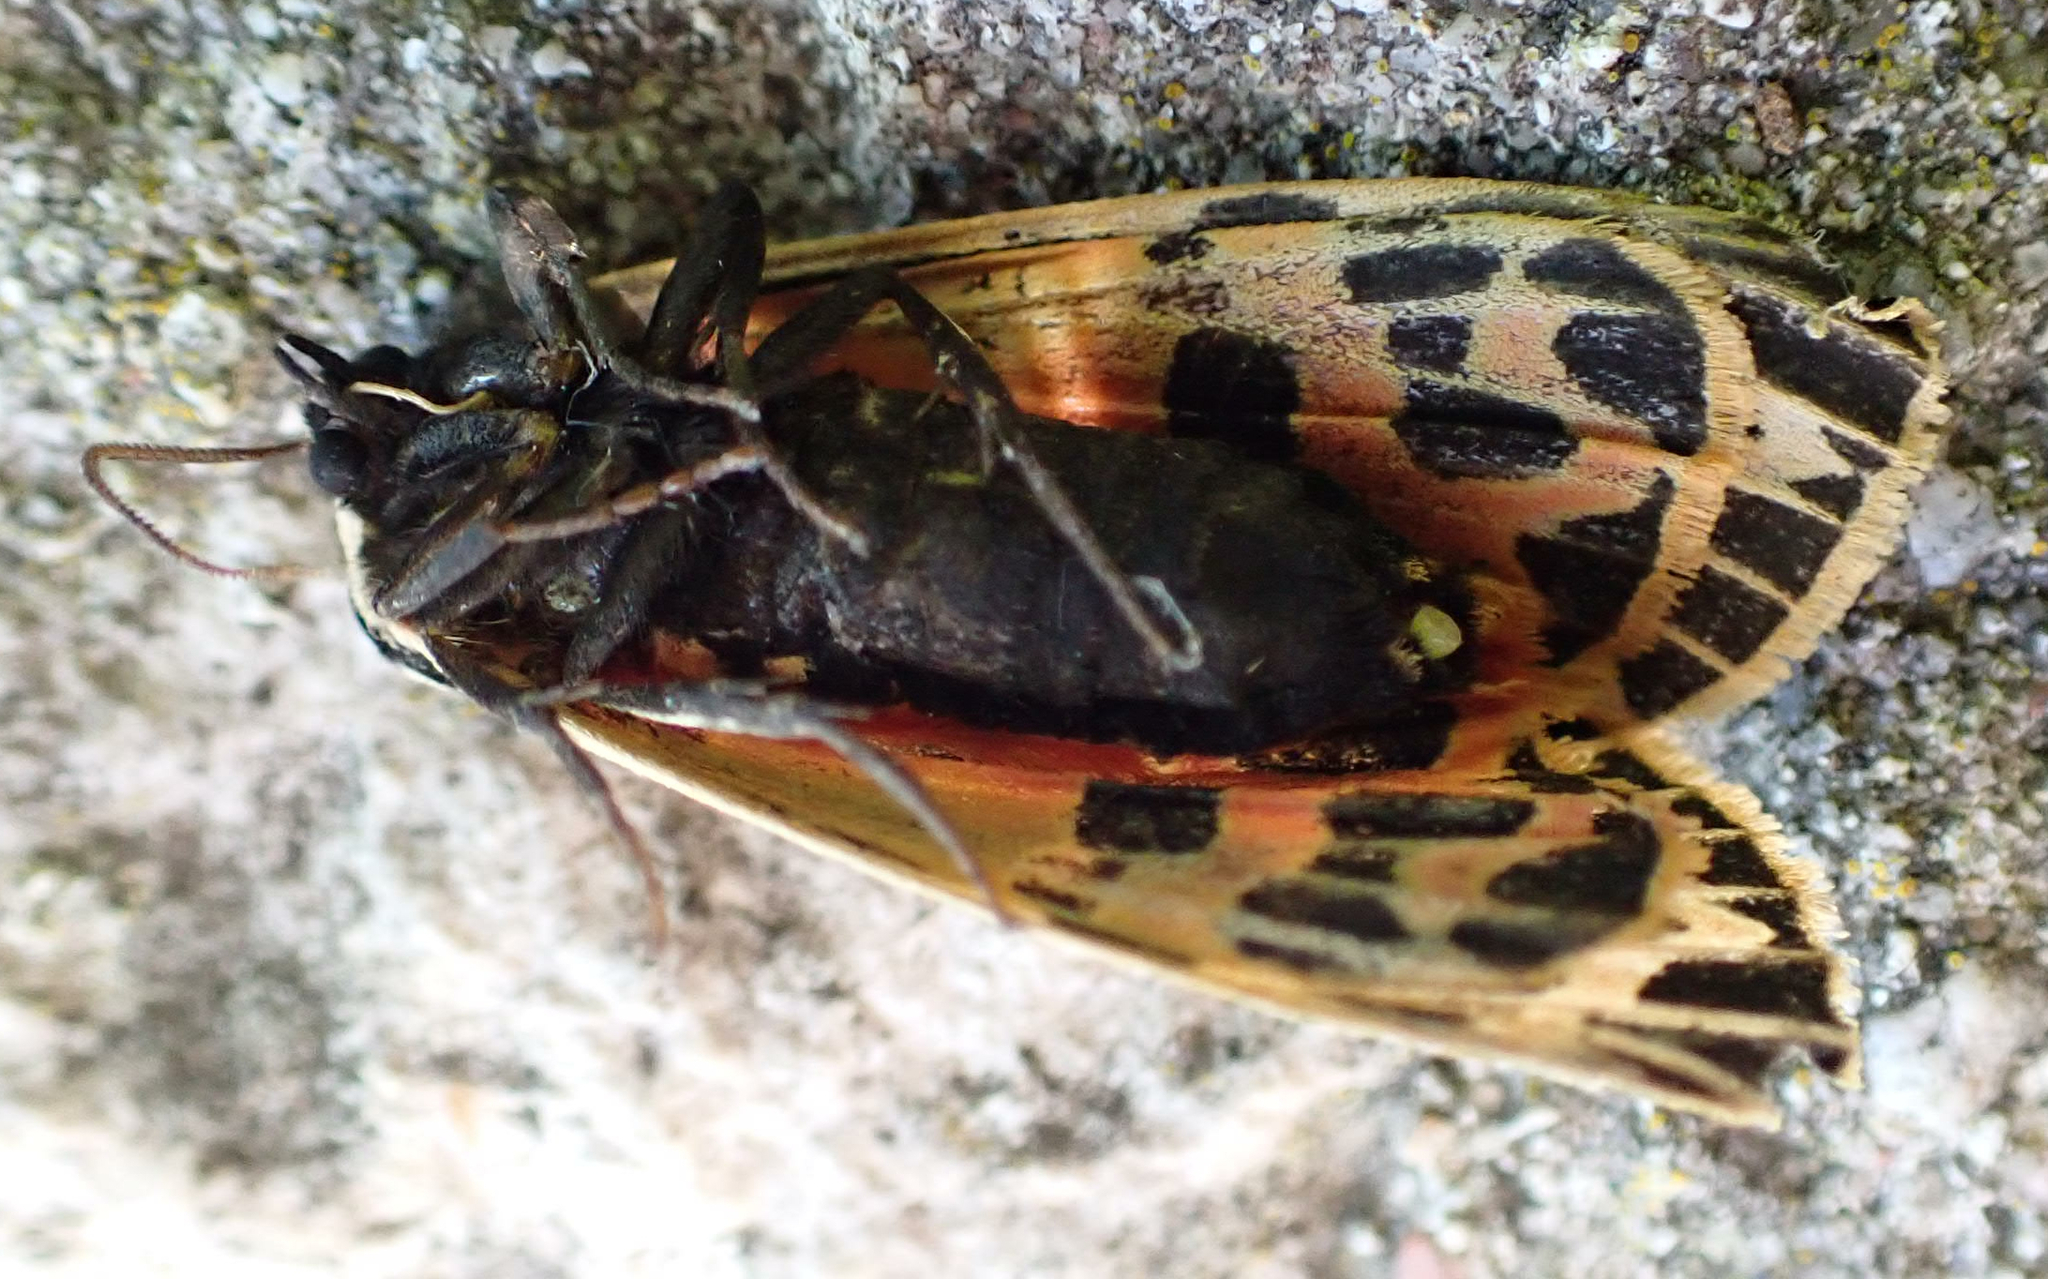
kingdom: Animalia
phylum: Arthropoda
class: Insecta
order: Lepidoptera
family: Erebidae
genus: Grammia
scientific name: Grammia virgo
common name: Virgin tiger moth
